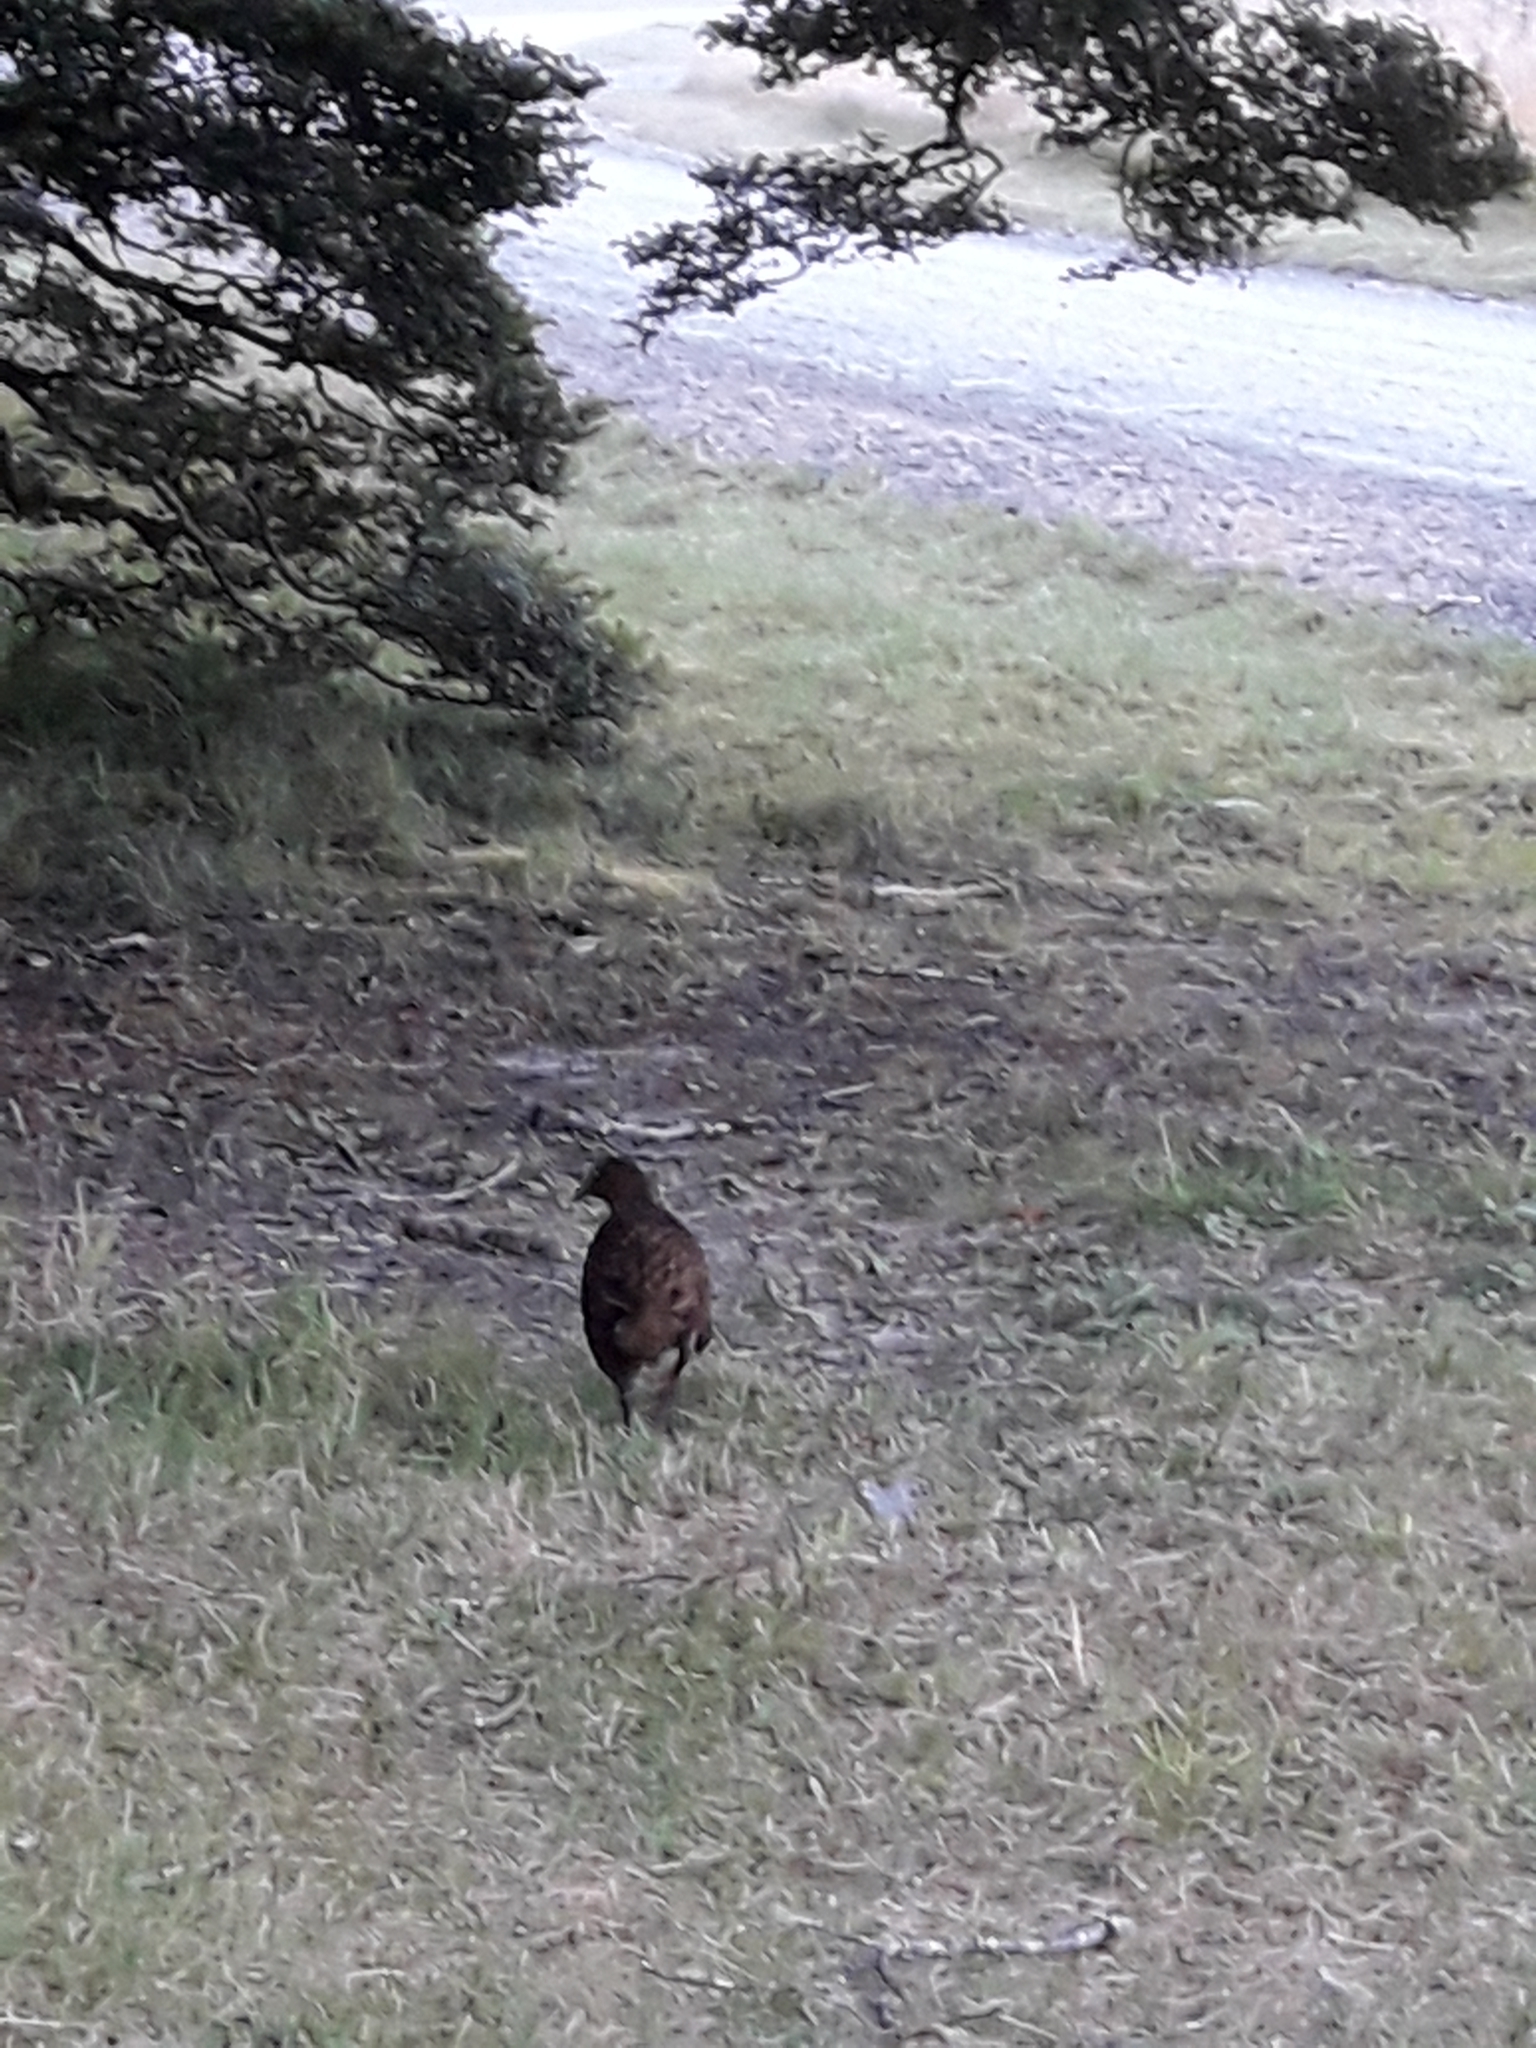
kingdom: Animalia
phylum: Chordata
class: Aves
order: Gruiformes
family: Rallidae
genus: Gallirallus
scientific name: Gallirallus australis
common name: Weka
